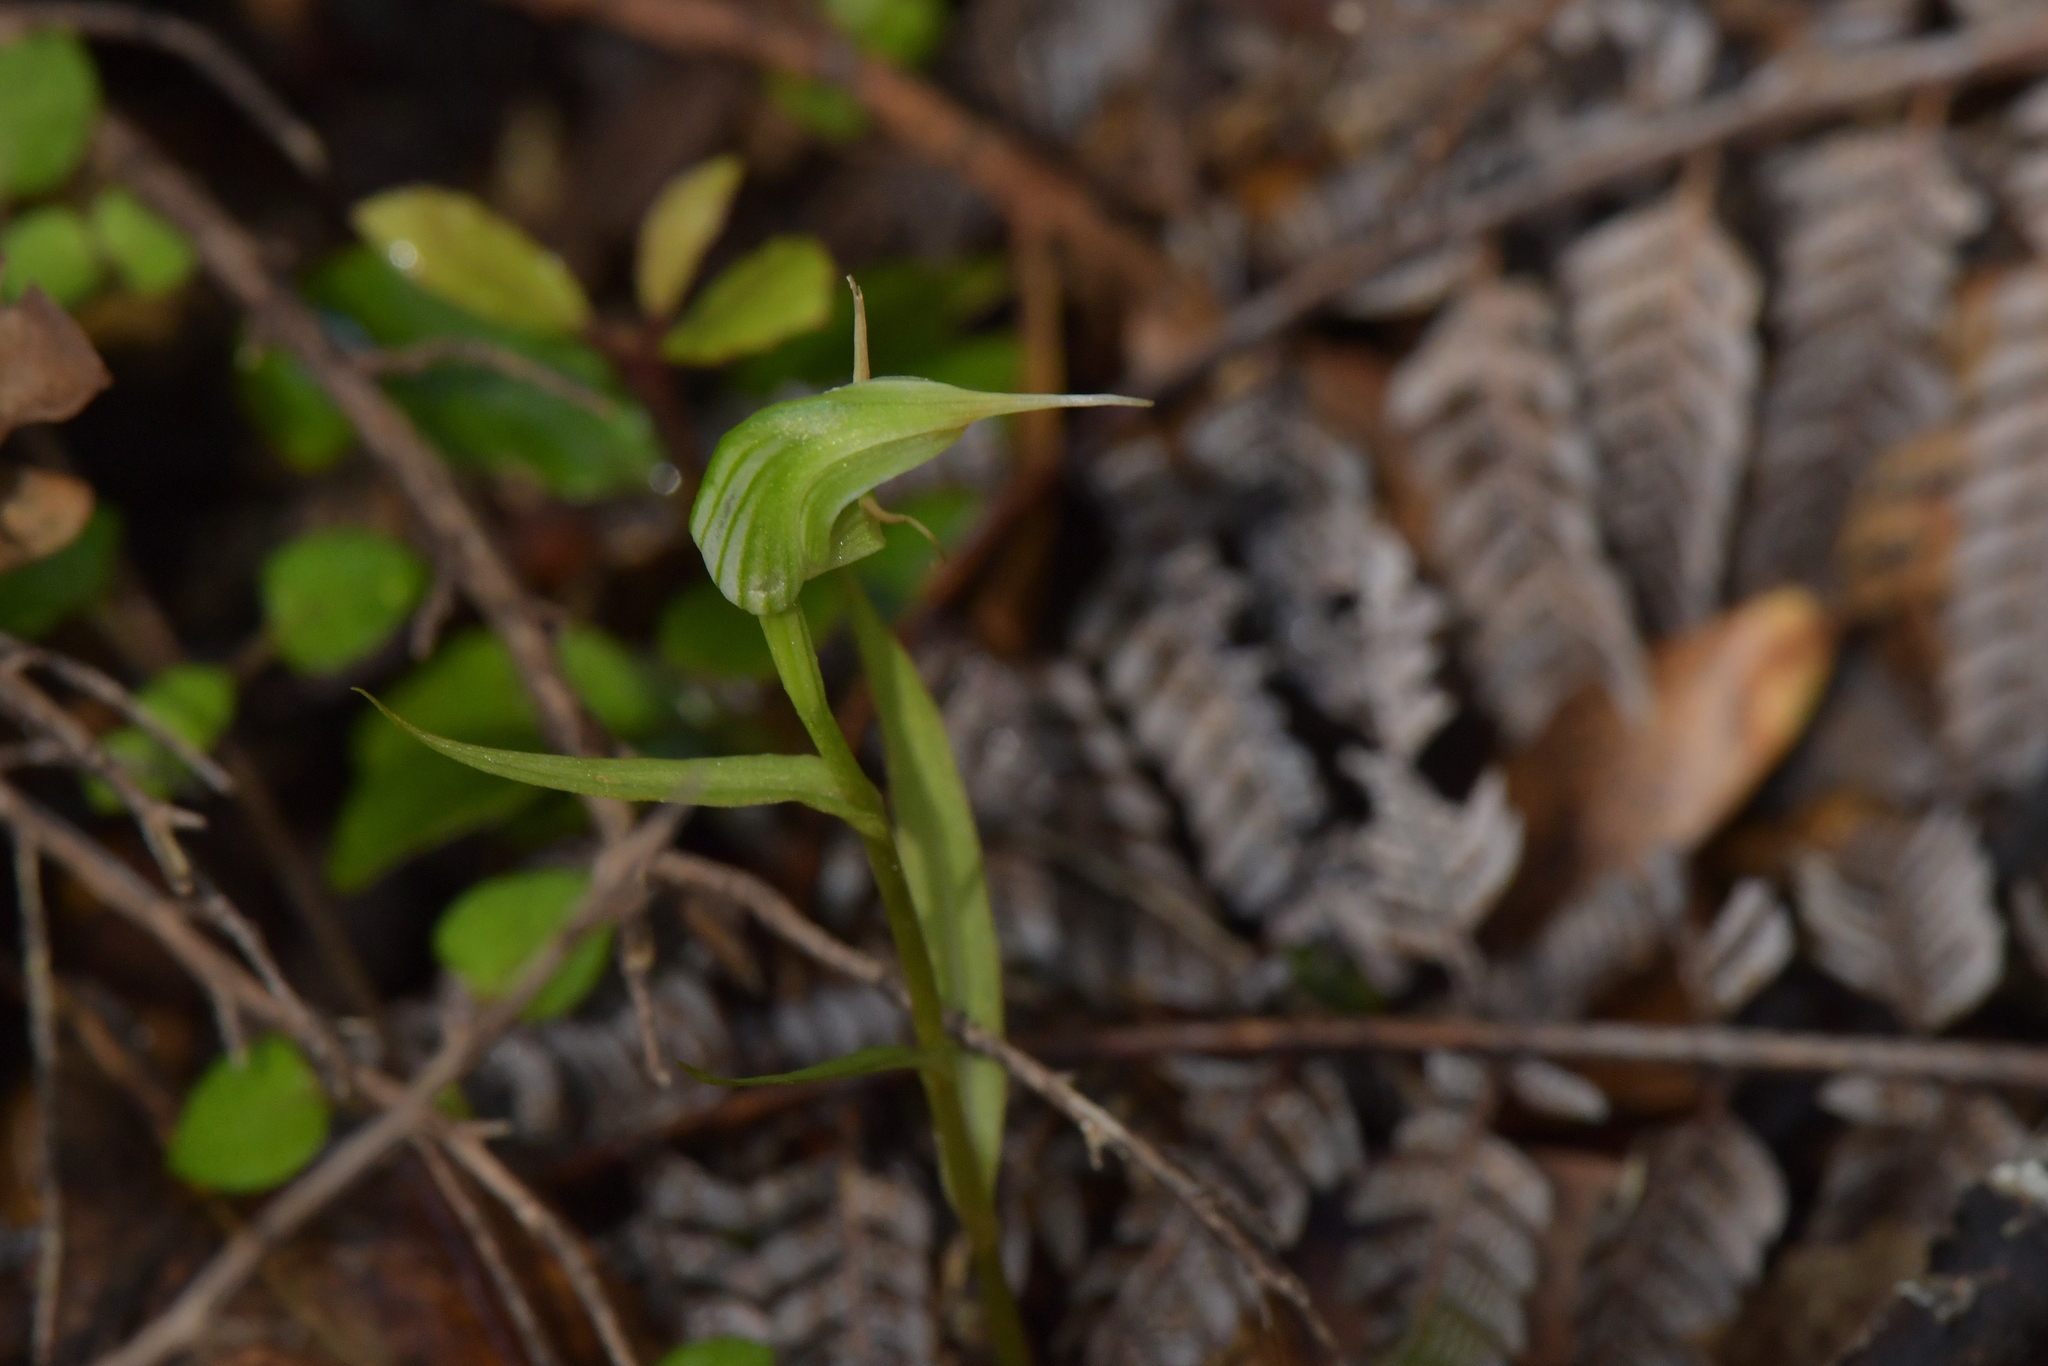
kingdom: Plantae
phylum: Tracheophyta
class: Liliopsida
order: Asparagales
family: Orchidaceae
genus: Pterostylis
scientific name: Pterostylis agathicola
